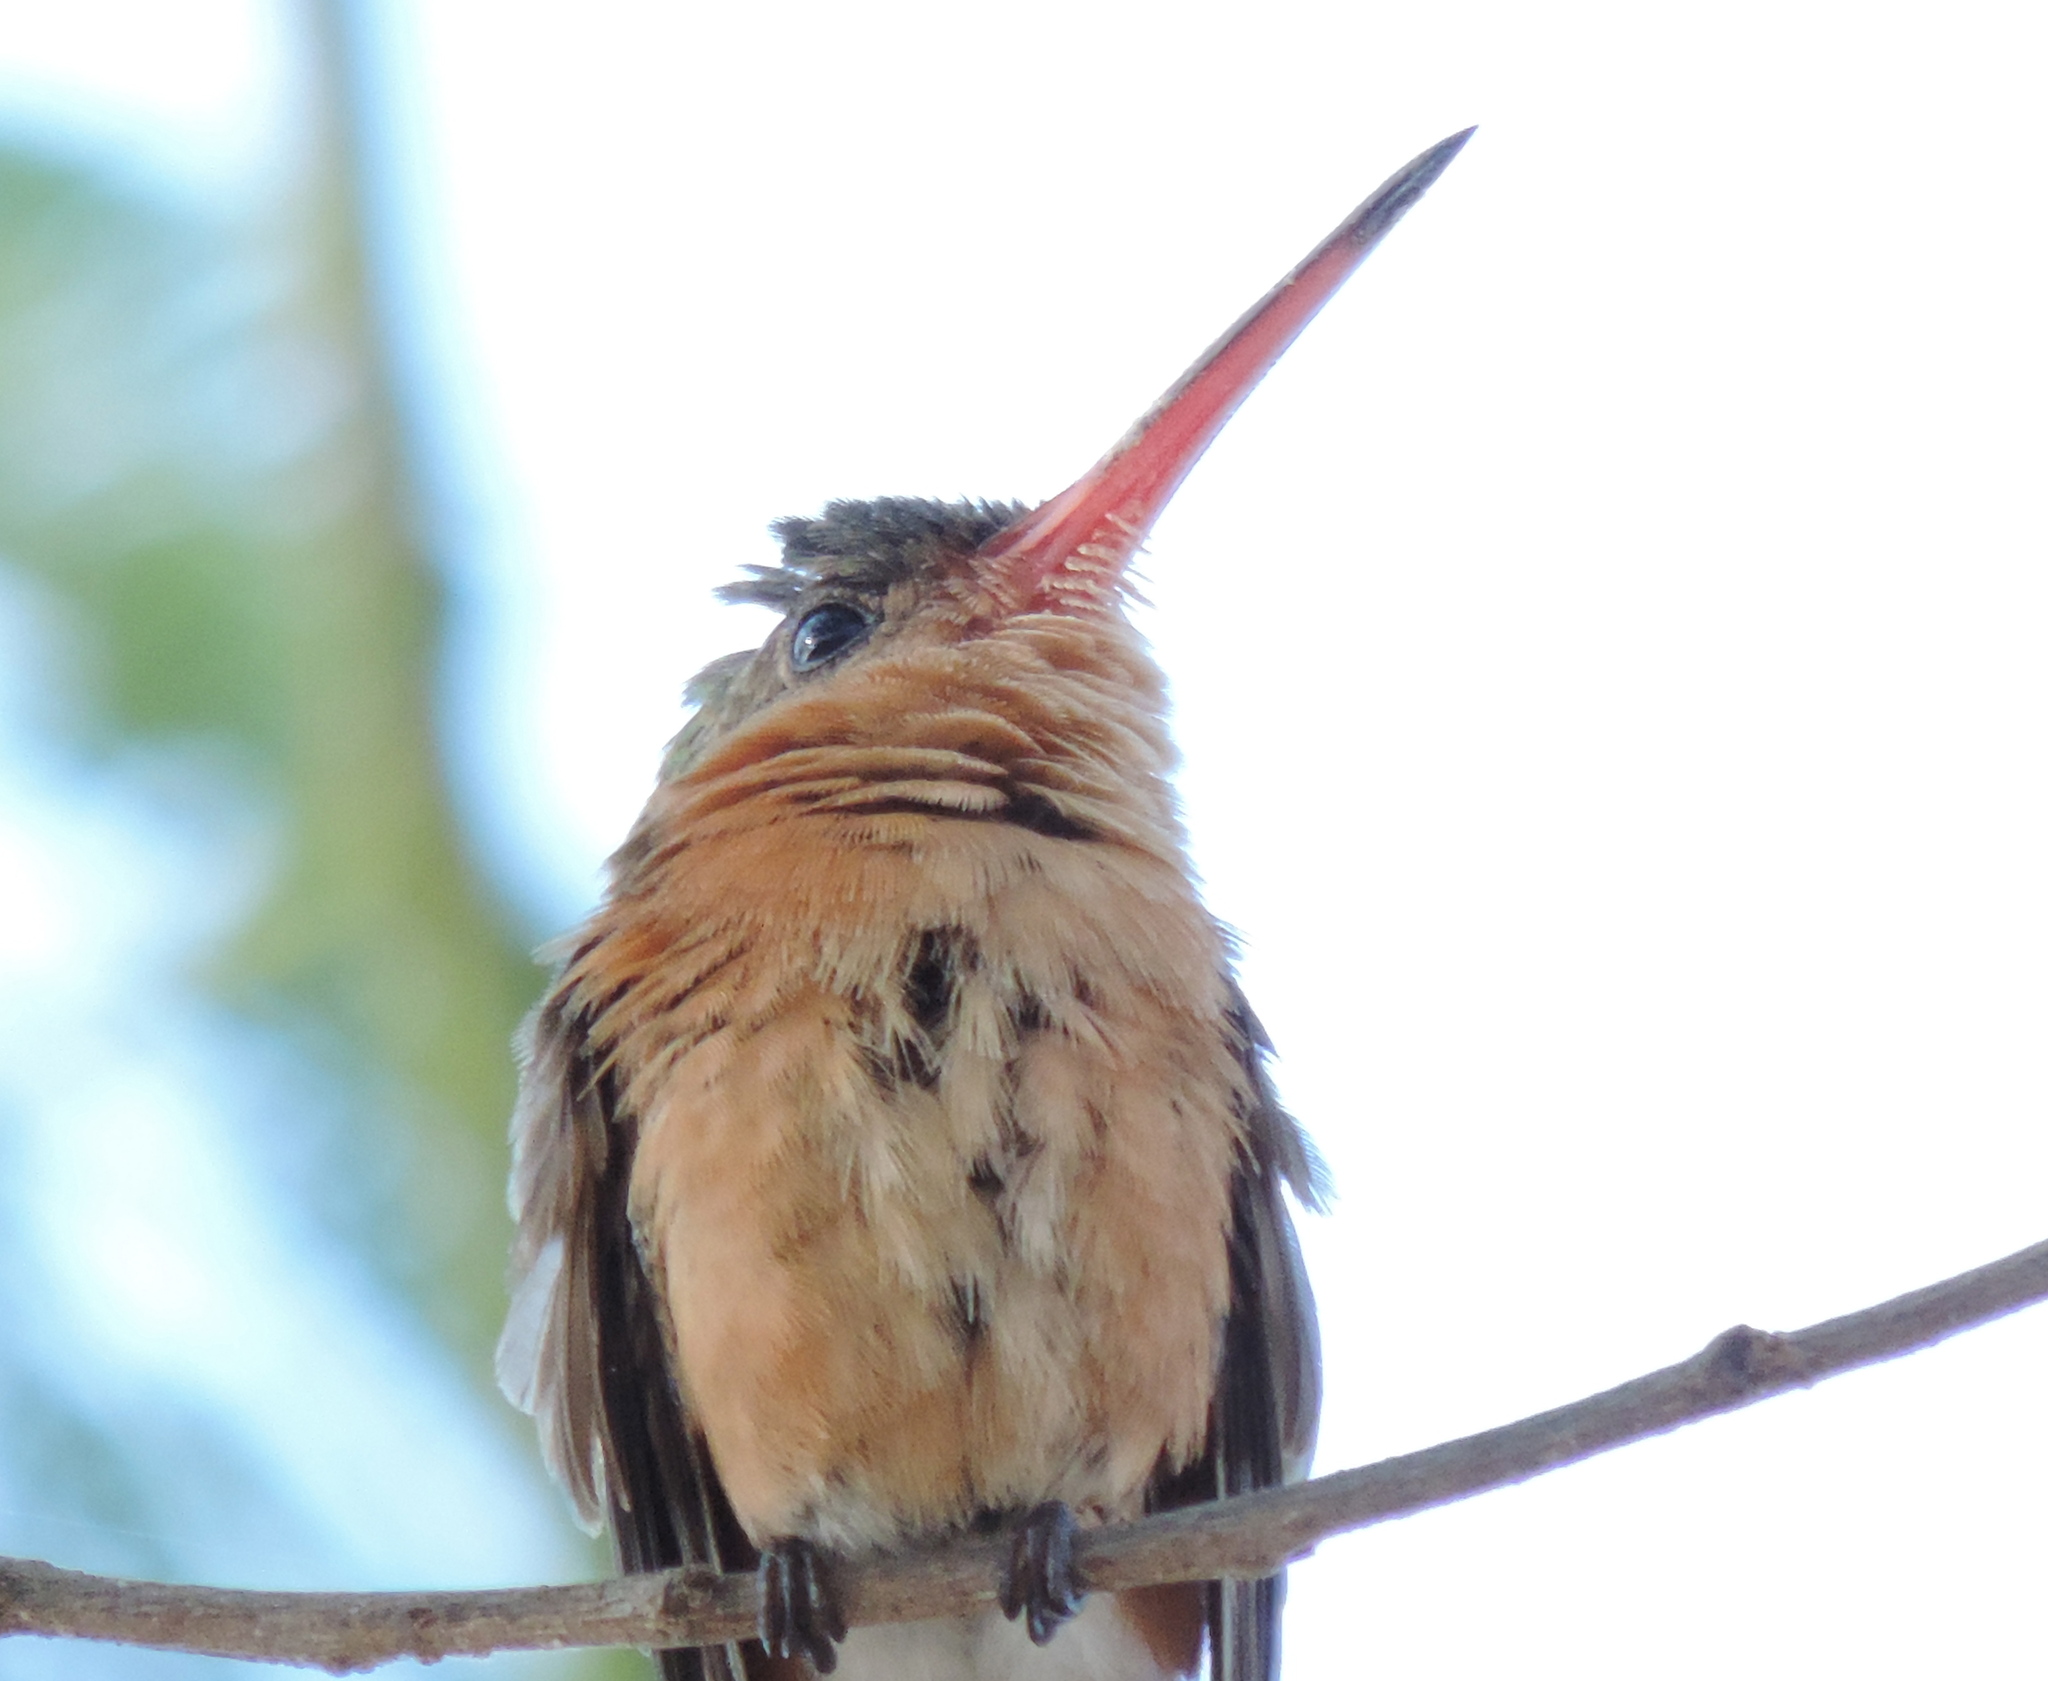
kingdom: Animalia
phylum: Chordata
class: Aves
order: Apodiformes
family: Trochilidae
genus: Amazilia
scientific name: Amazilia rutila
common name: Cinnamon hummingbird
